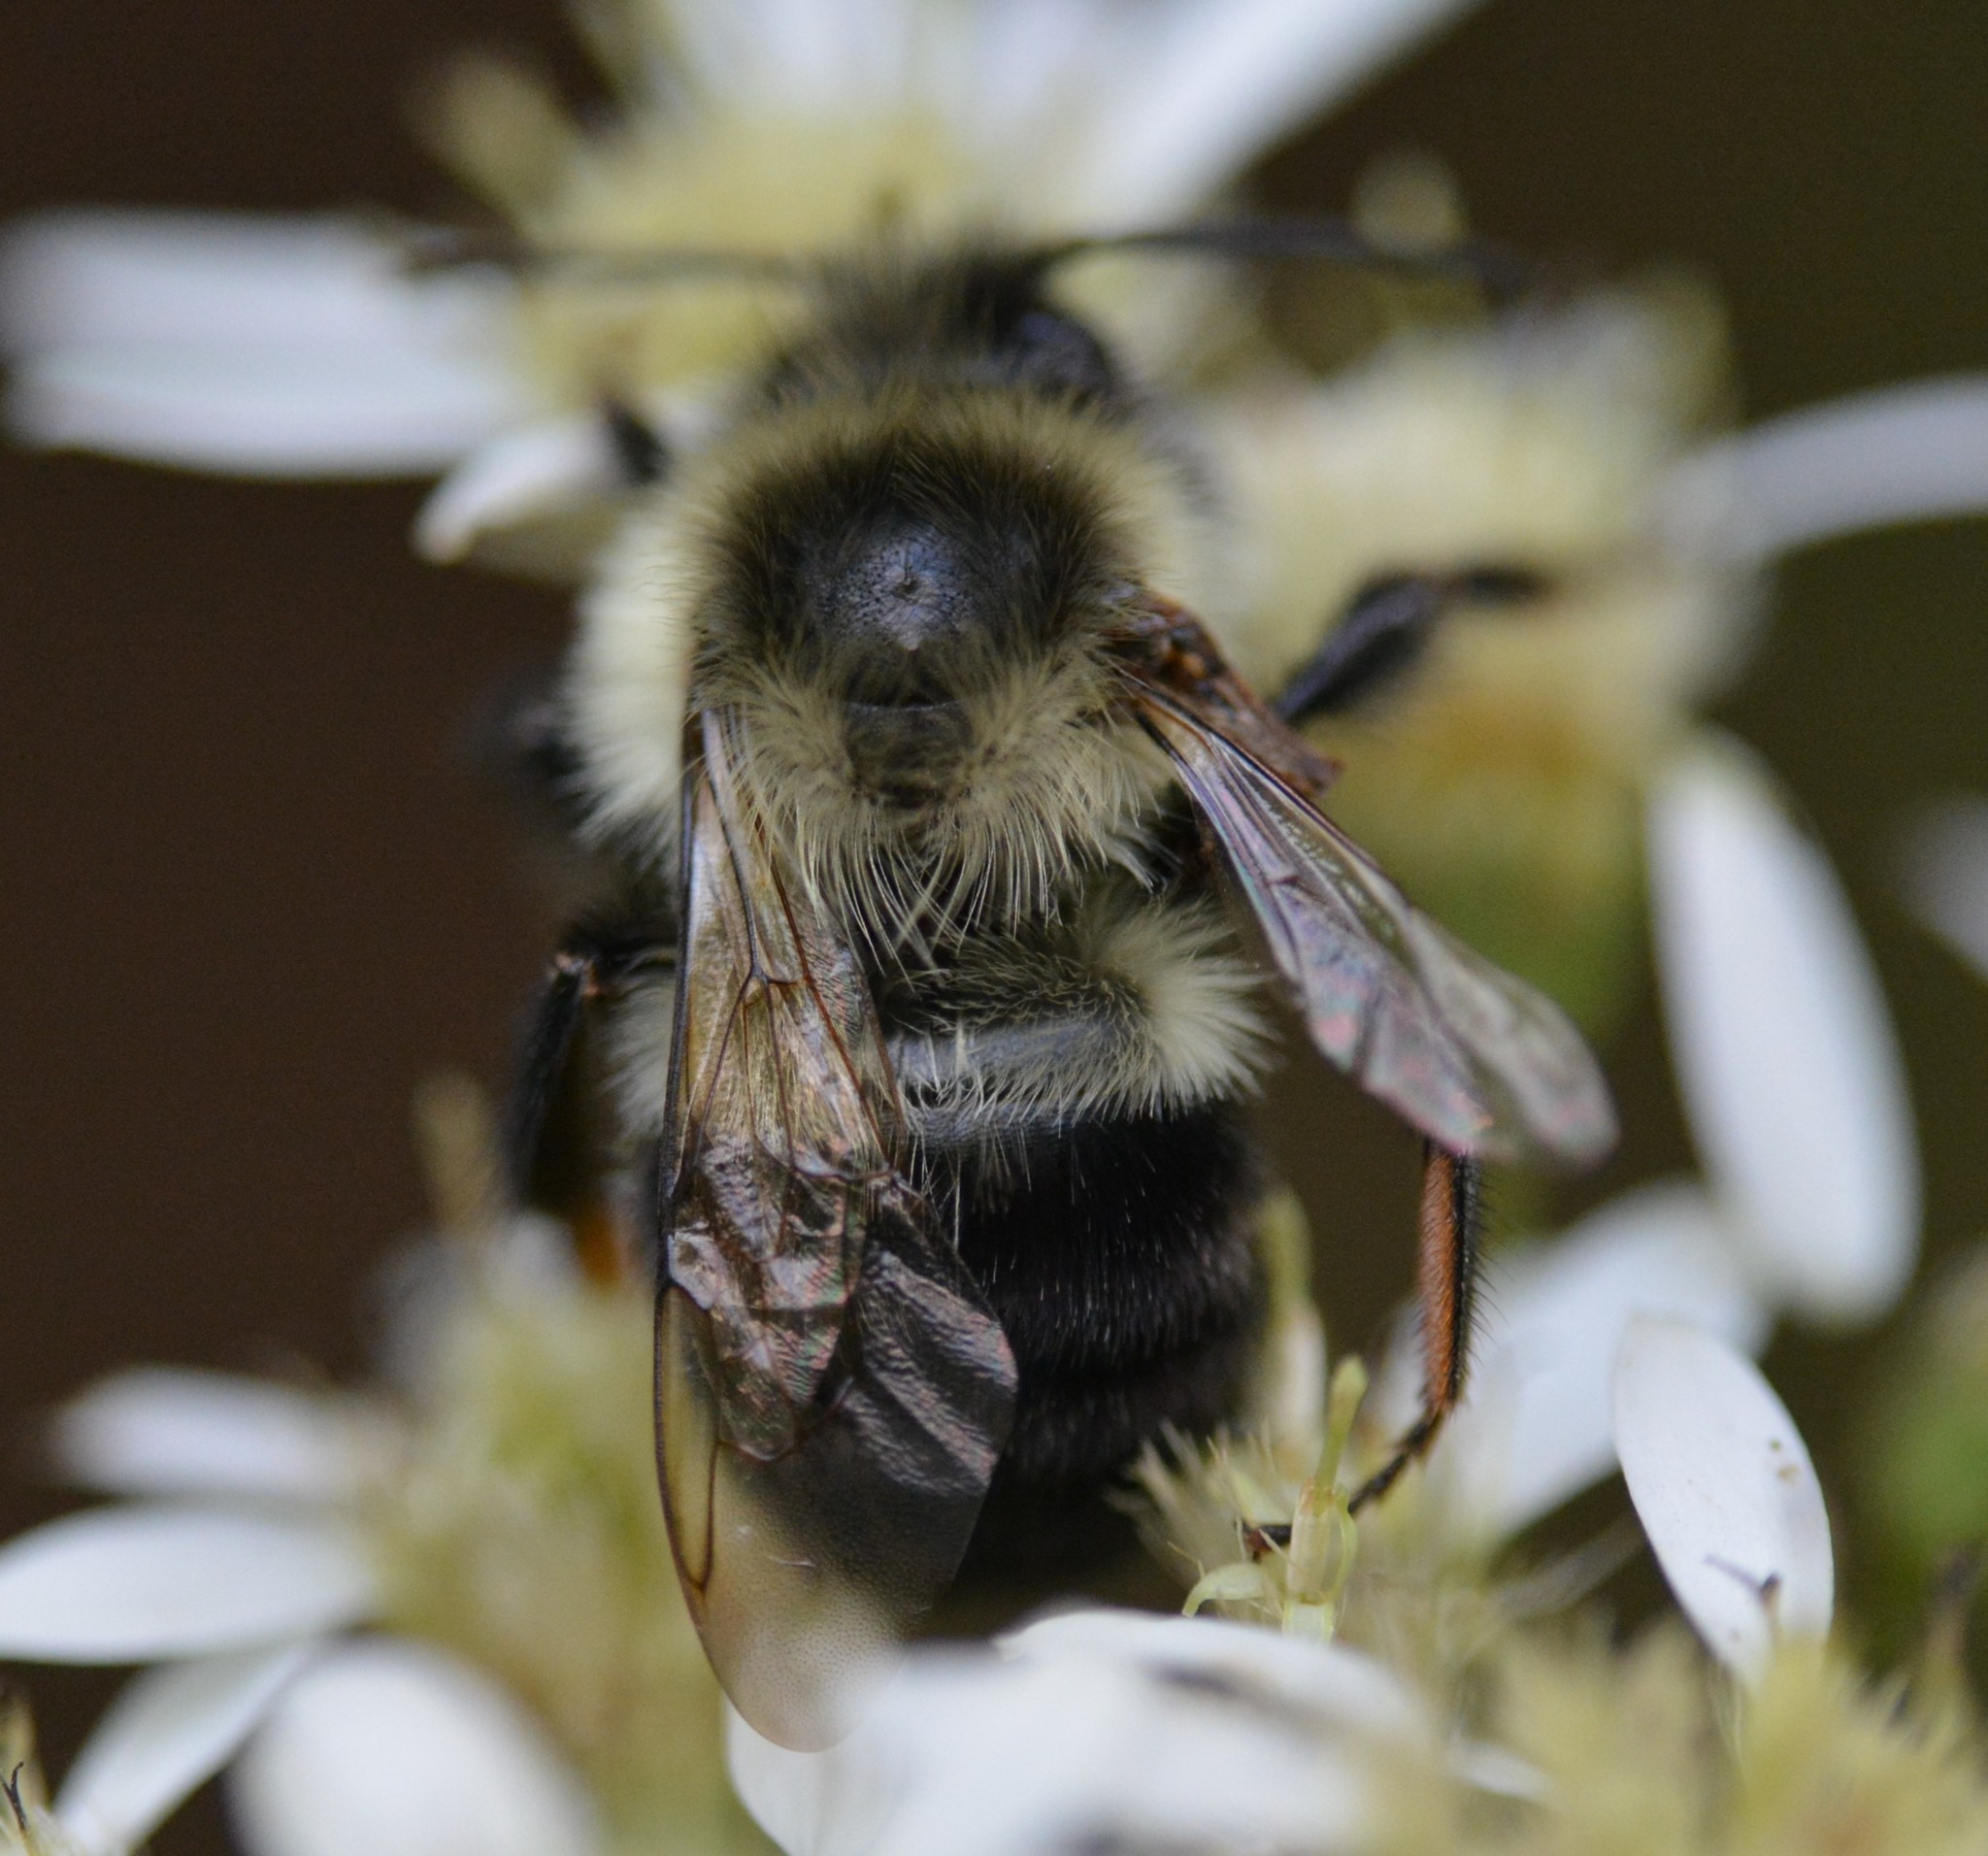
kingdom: Animalia
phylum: Arthropoda
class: Insecta
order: Hymenoptera
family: Apidae
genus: Bombus
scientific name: Bombus impatiens
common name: Common eastern bumble bee
